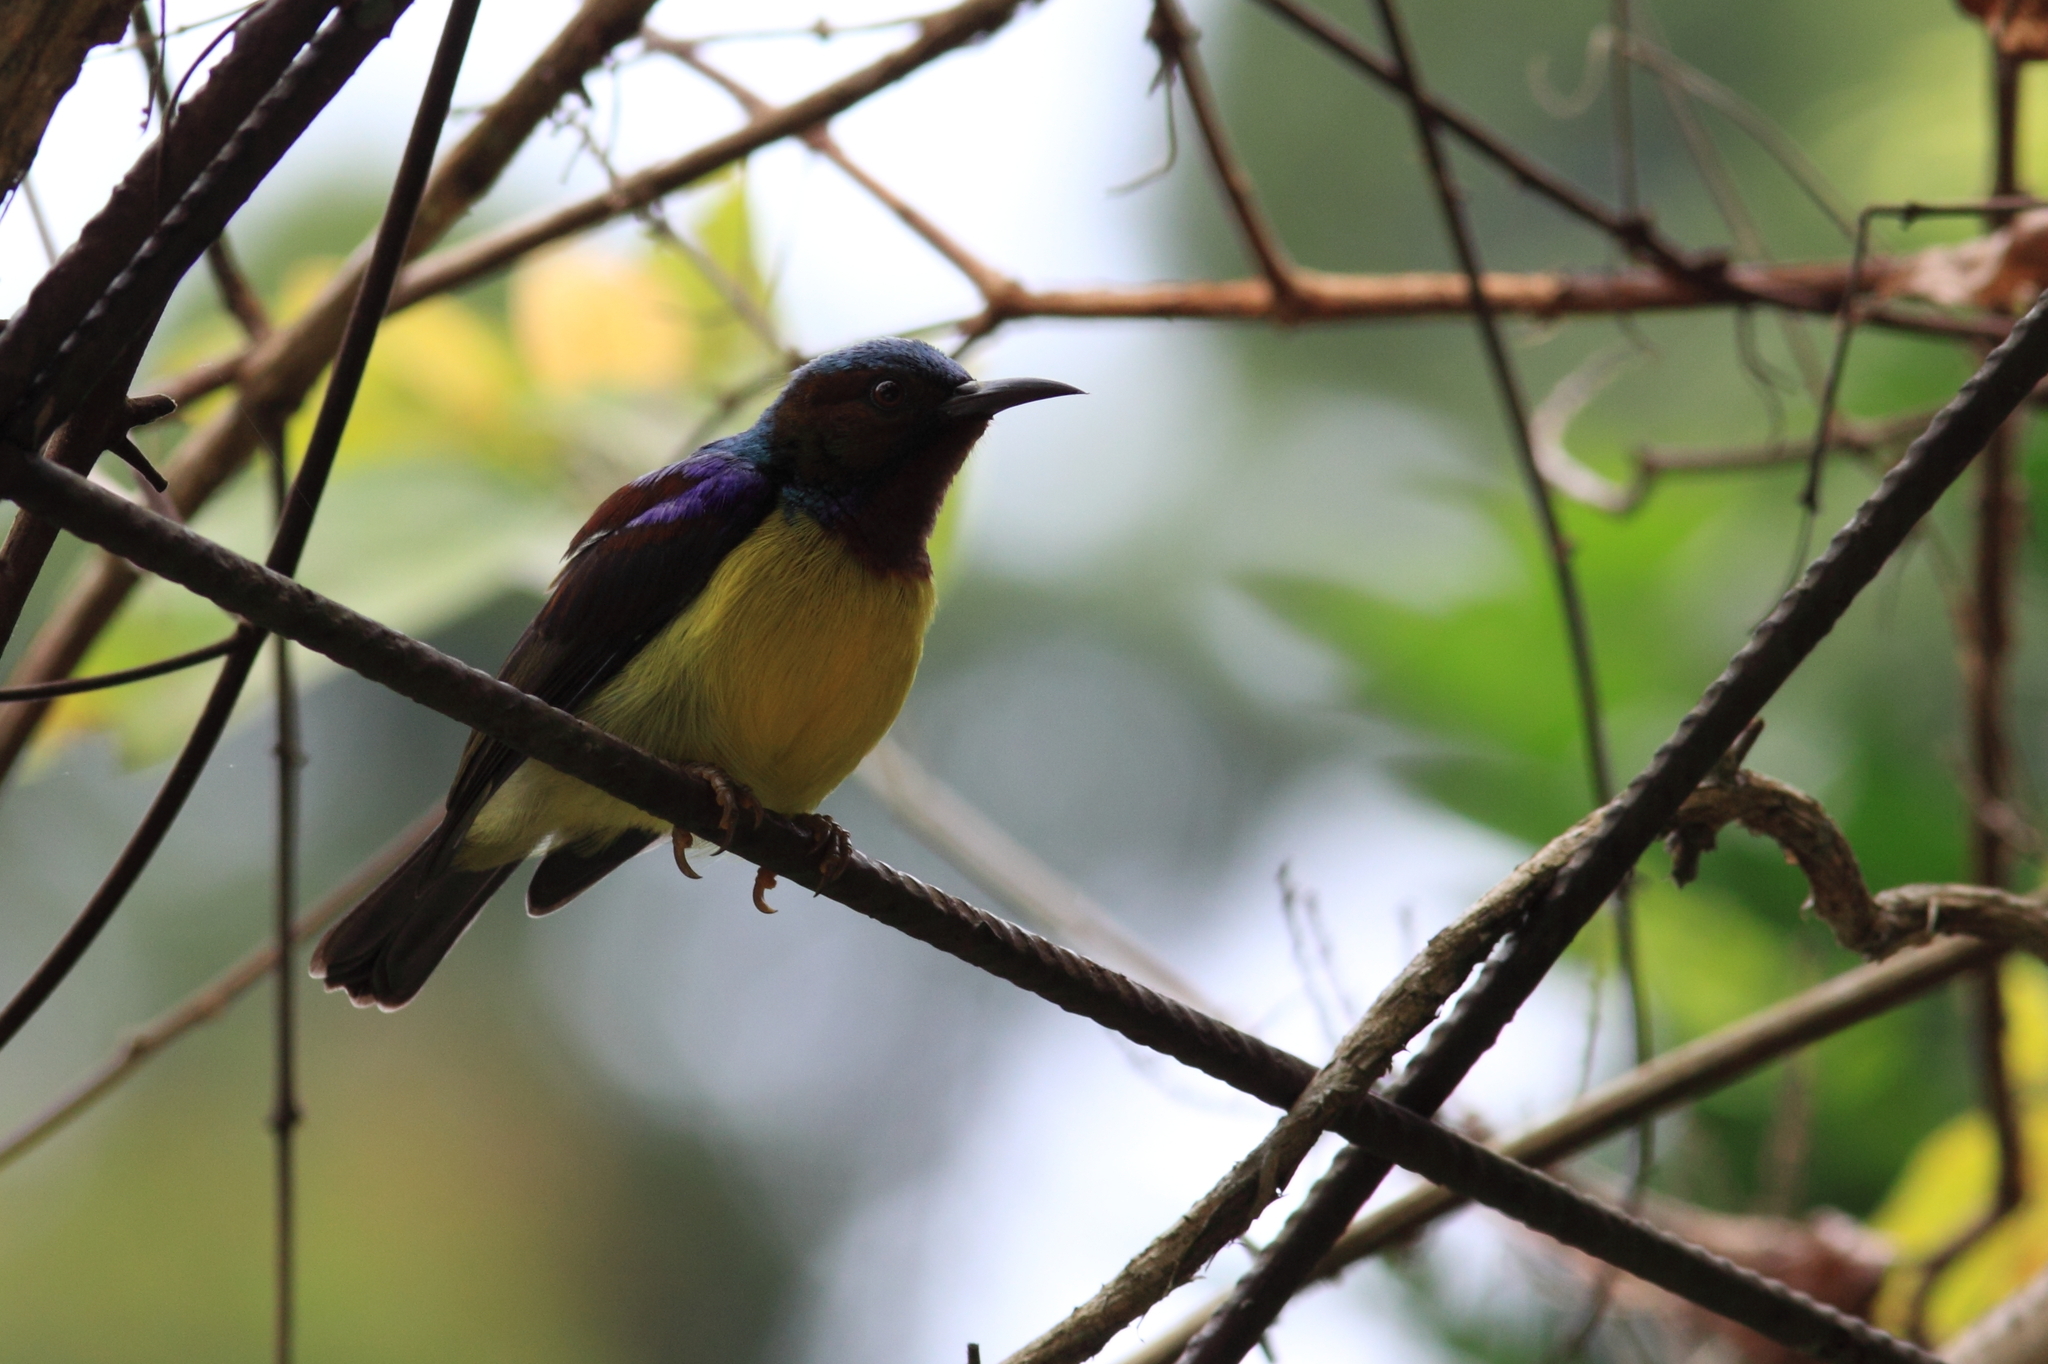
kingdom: Animalia
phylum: Chordata
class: Aves
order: Passeriformes
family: Nectariniidae
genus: Anthreptes
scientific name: Anthreptes malacensis
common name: Brown-throated sunbird
